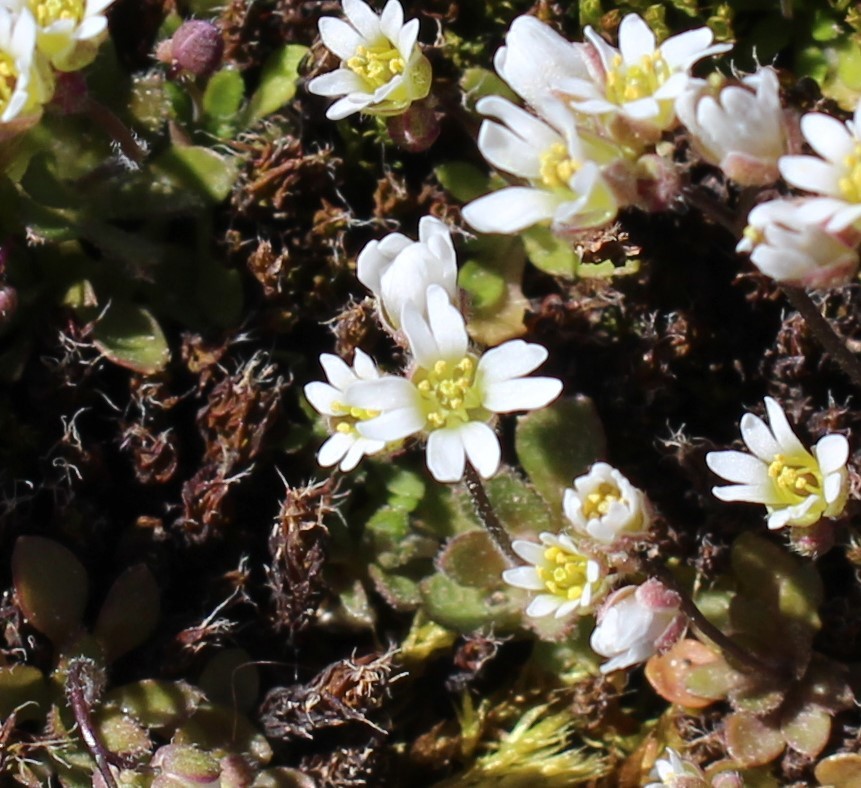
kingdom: Plantae
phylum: Tracheophyta
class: Magnoliopsida
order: Brassicales
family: Brassicaceae
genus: Draba
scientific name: Draba verna
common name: Spring draba
